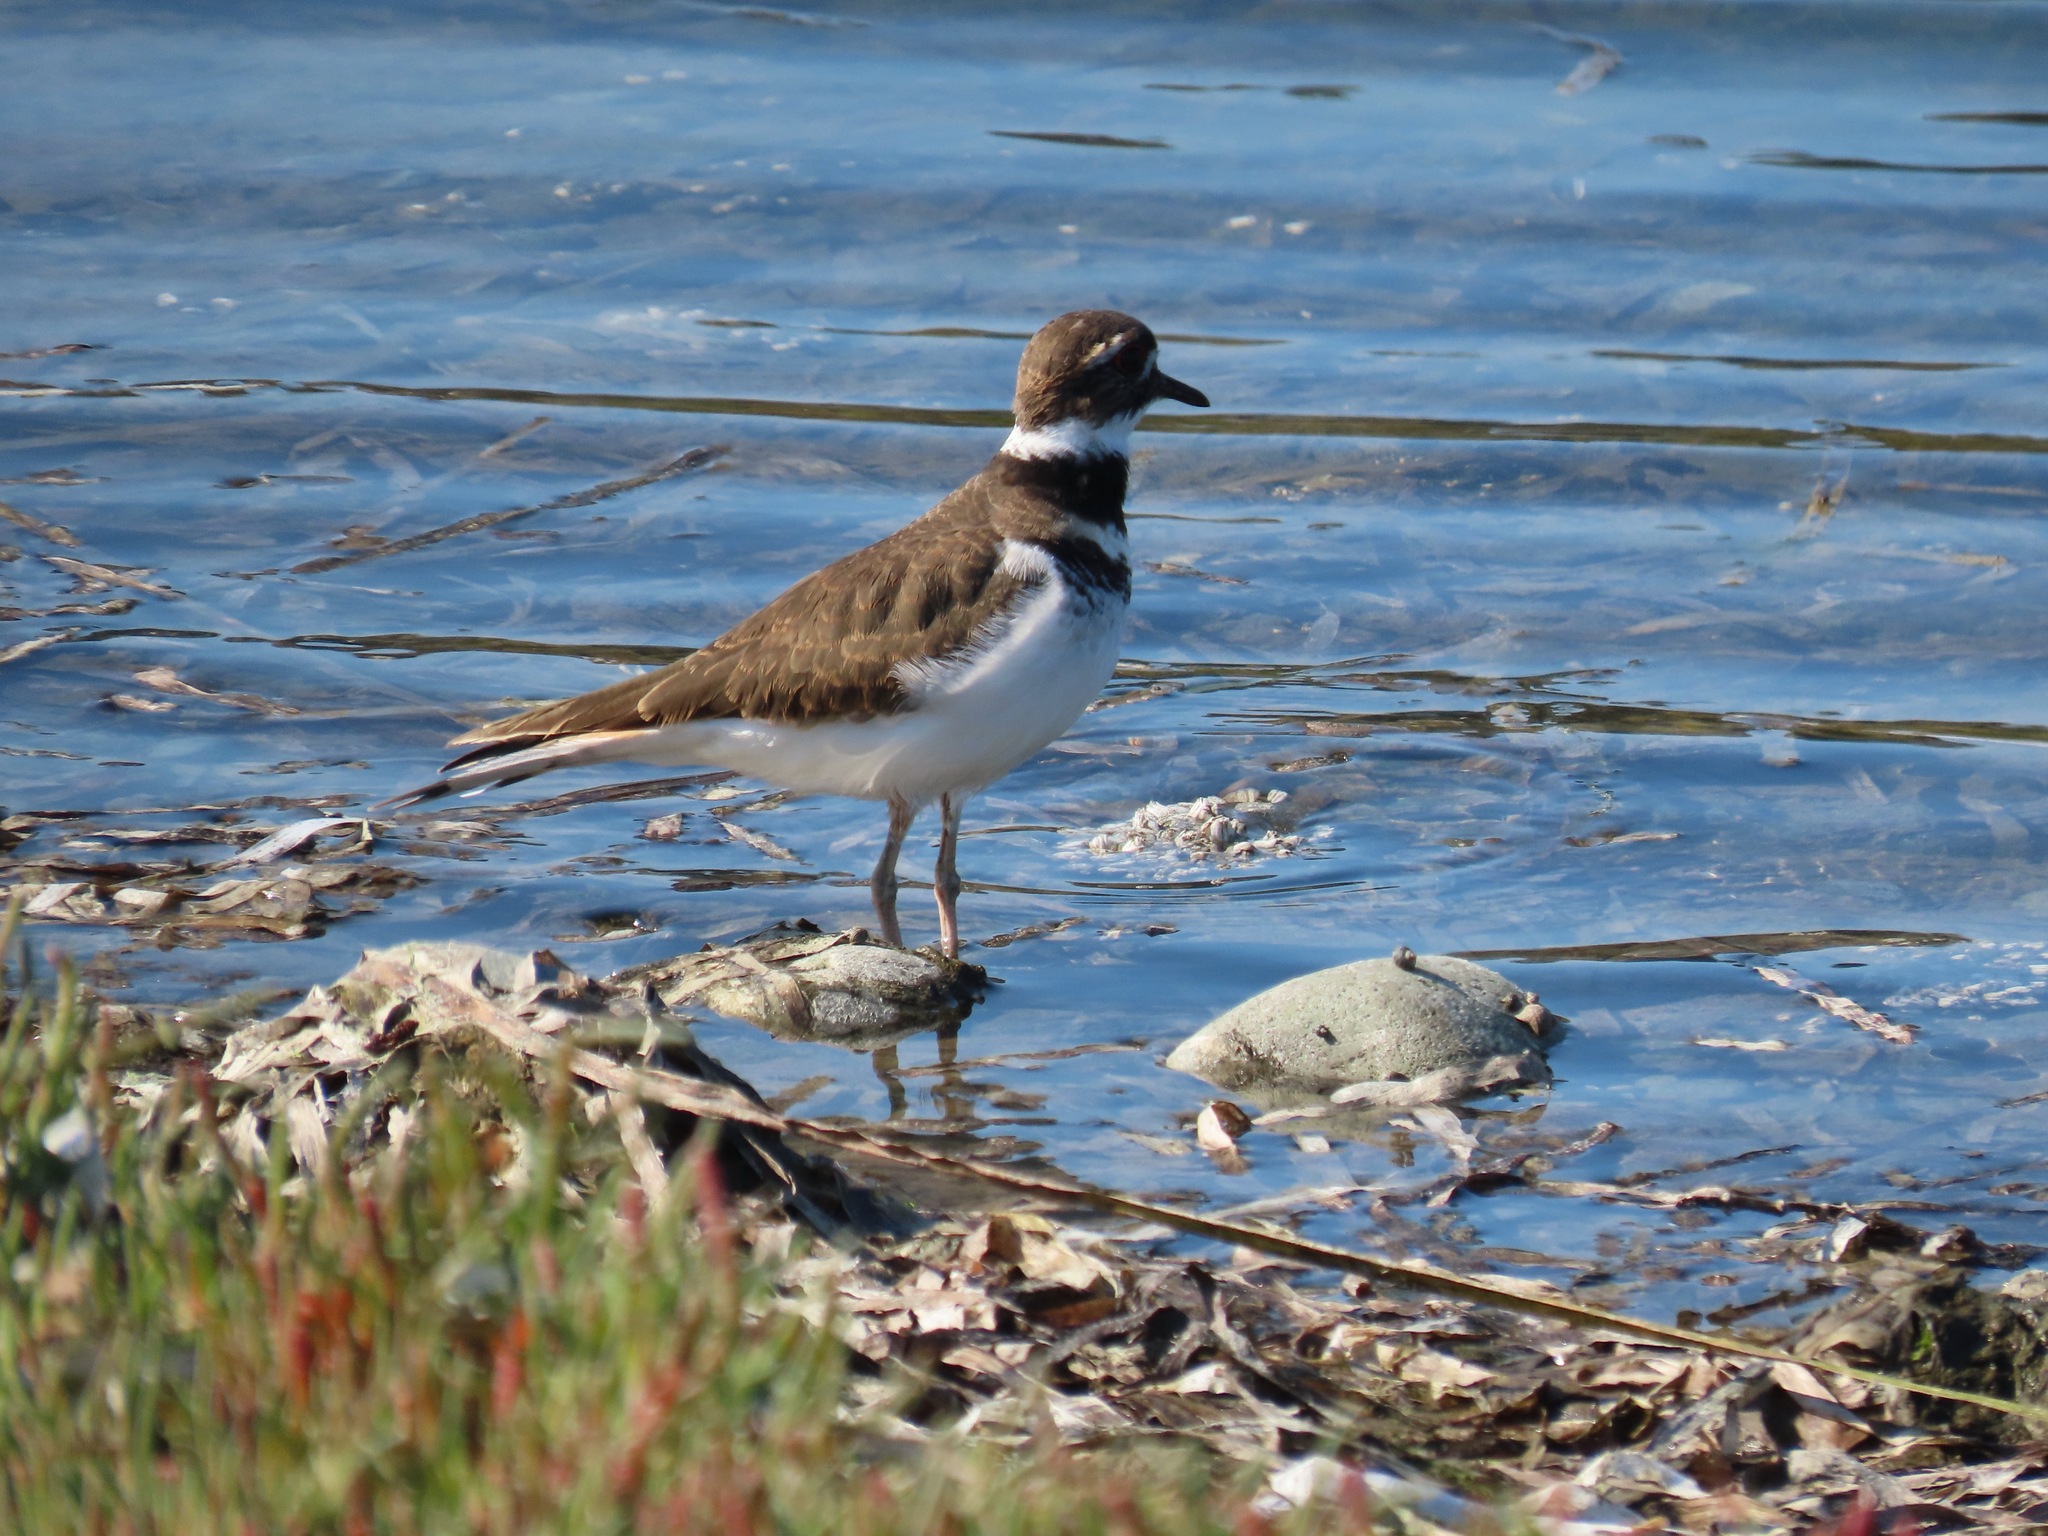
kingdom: Animalia
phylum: Chordata
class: Aves
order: Charadriiformes
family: Charadriidae
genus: Charadrius
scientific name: Charadrius vociferus
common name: Killdeer
